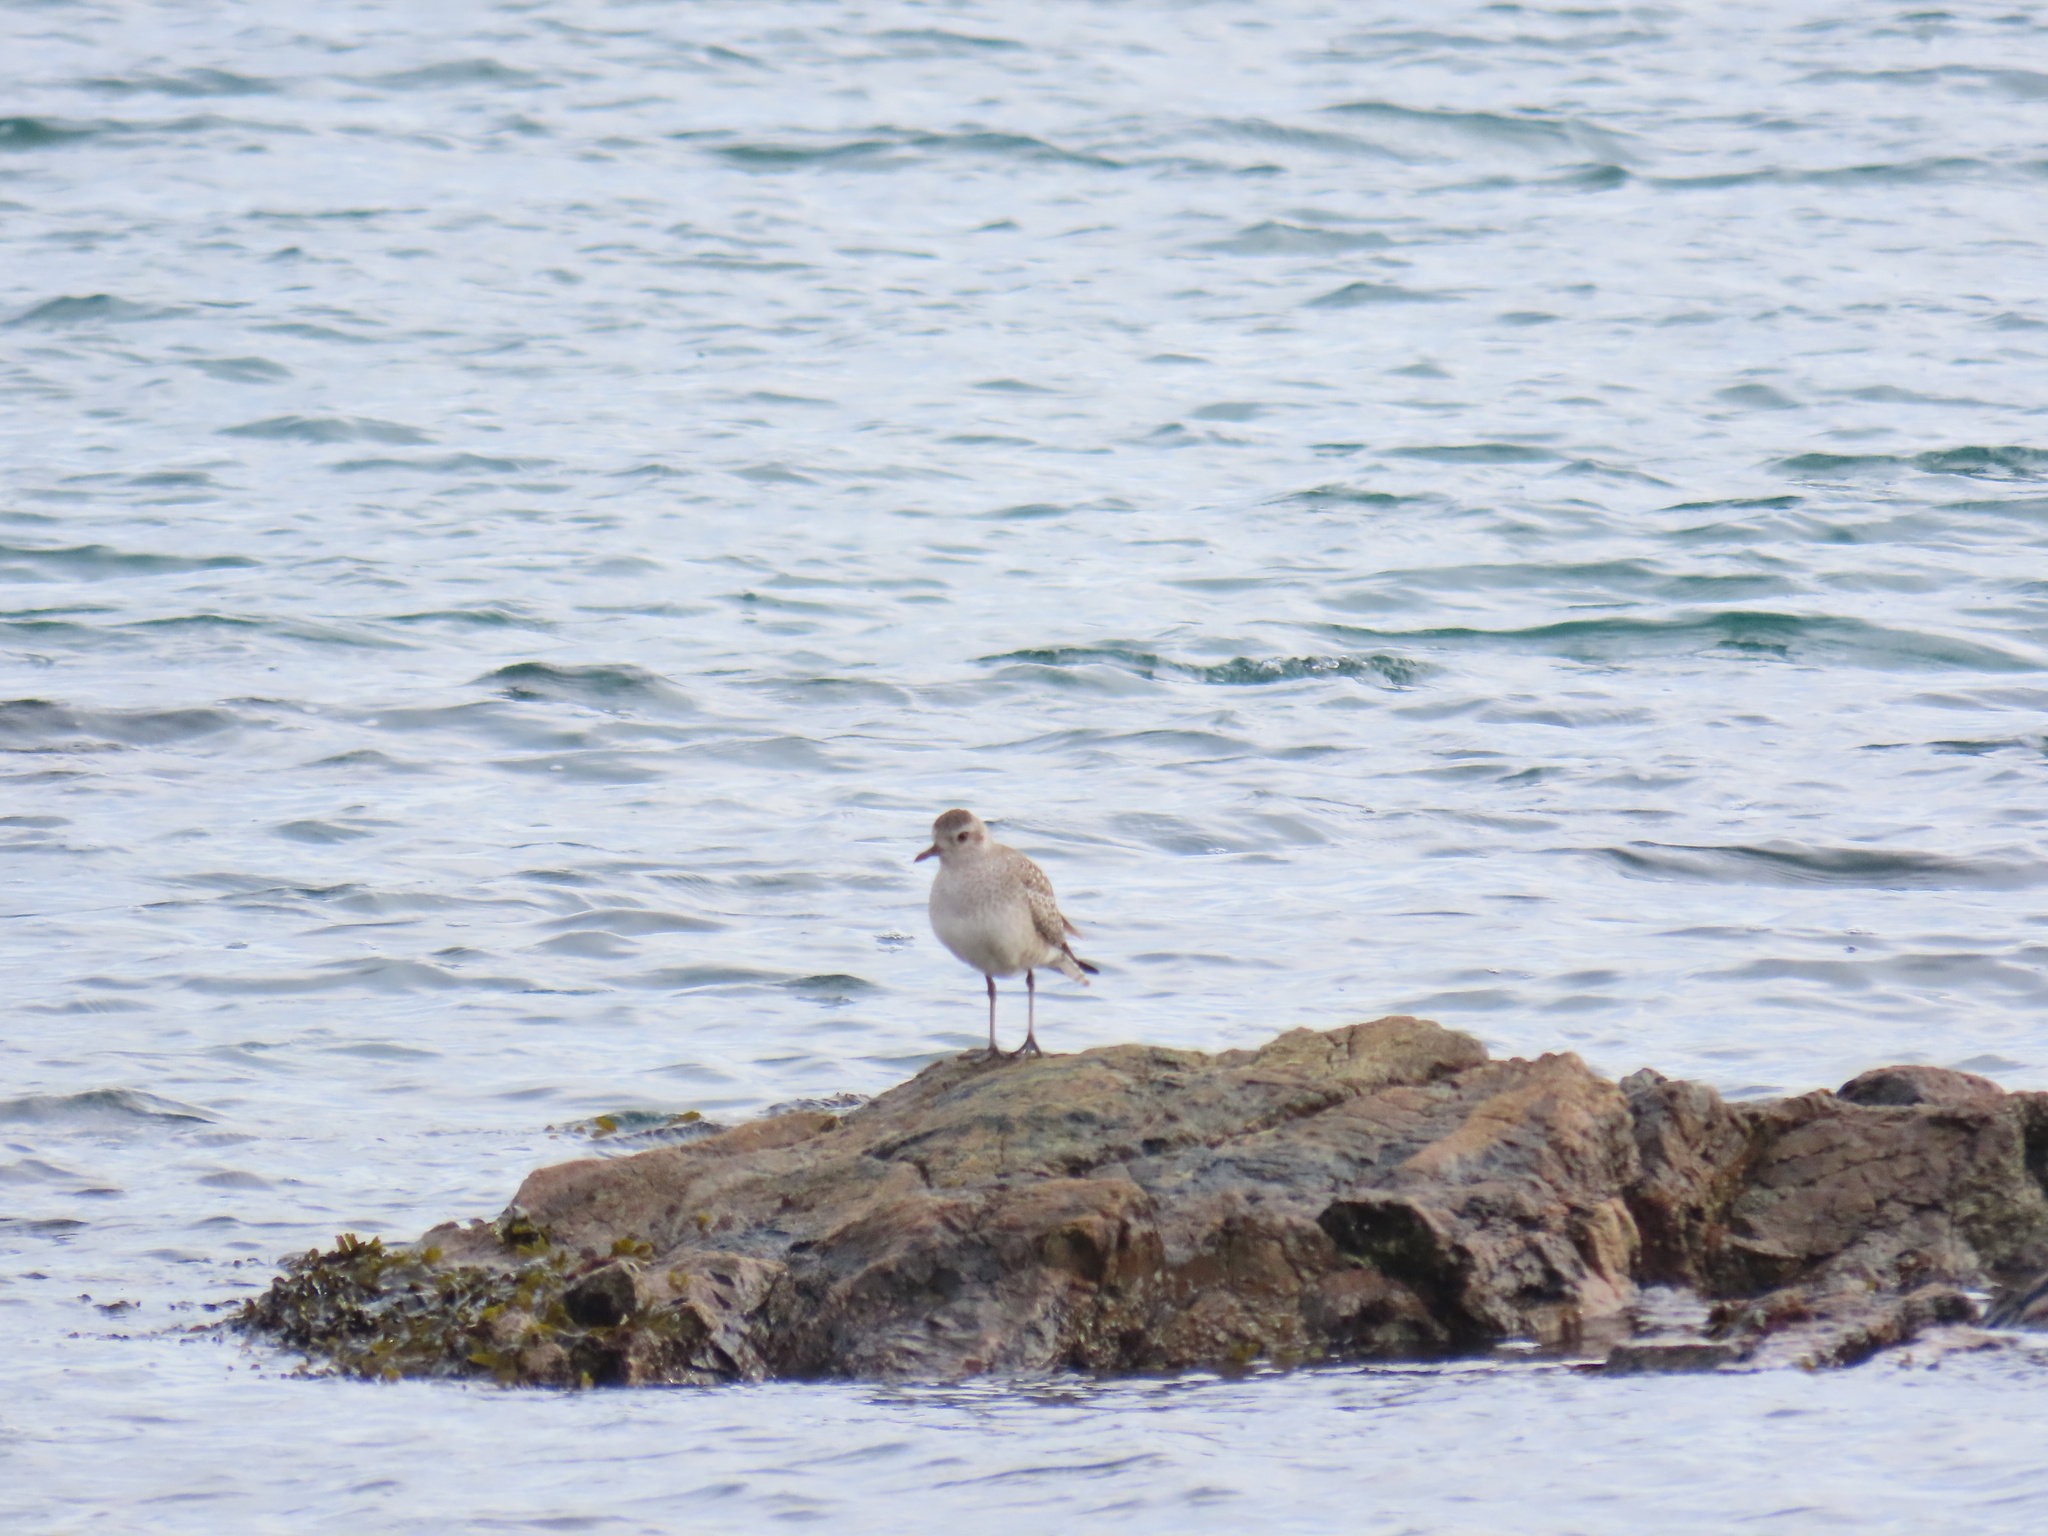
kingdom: Animalia
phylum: Chordata
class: Aves
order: Charadriiformes
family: Charadriidae
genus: Pluvialis
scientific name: Pluvialis squatarola
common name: Grey plover
